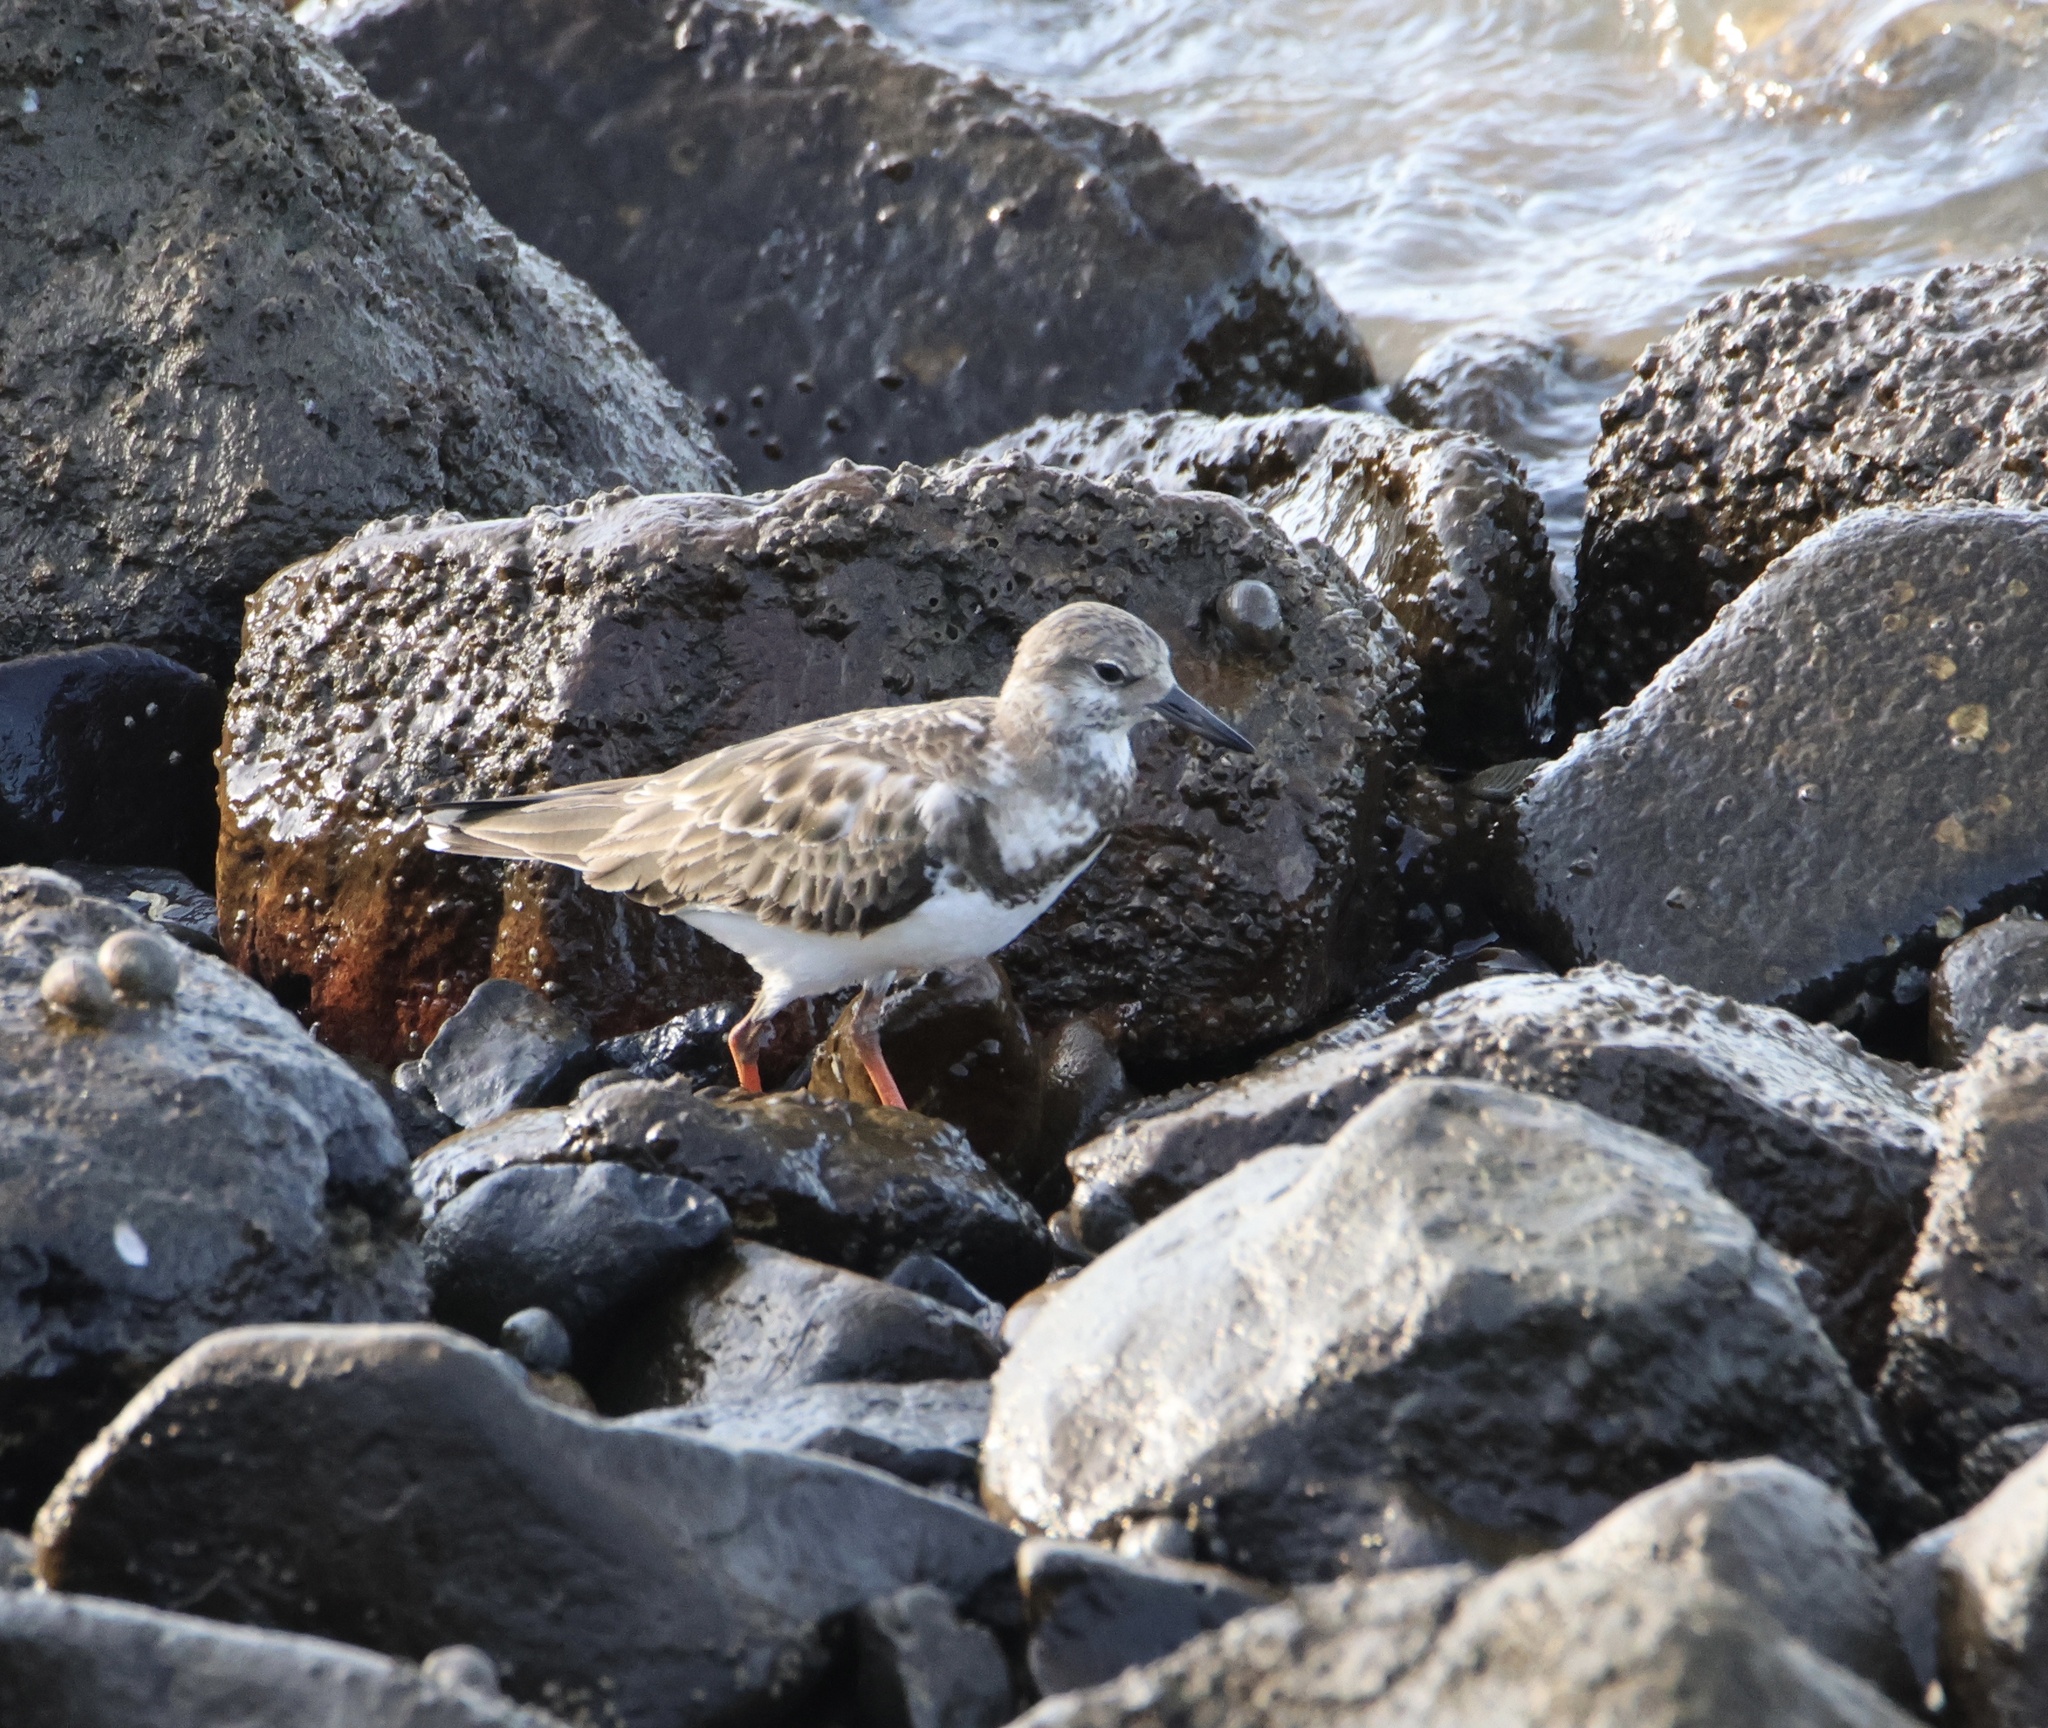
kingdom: Animalia
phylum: Chordata
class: Aves
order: Charadriiformes
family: Scolopacidae
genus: Arenaria
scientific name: Arenaria interpres
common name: Ruddy turnstone
